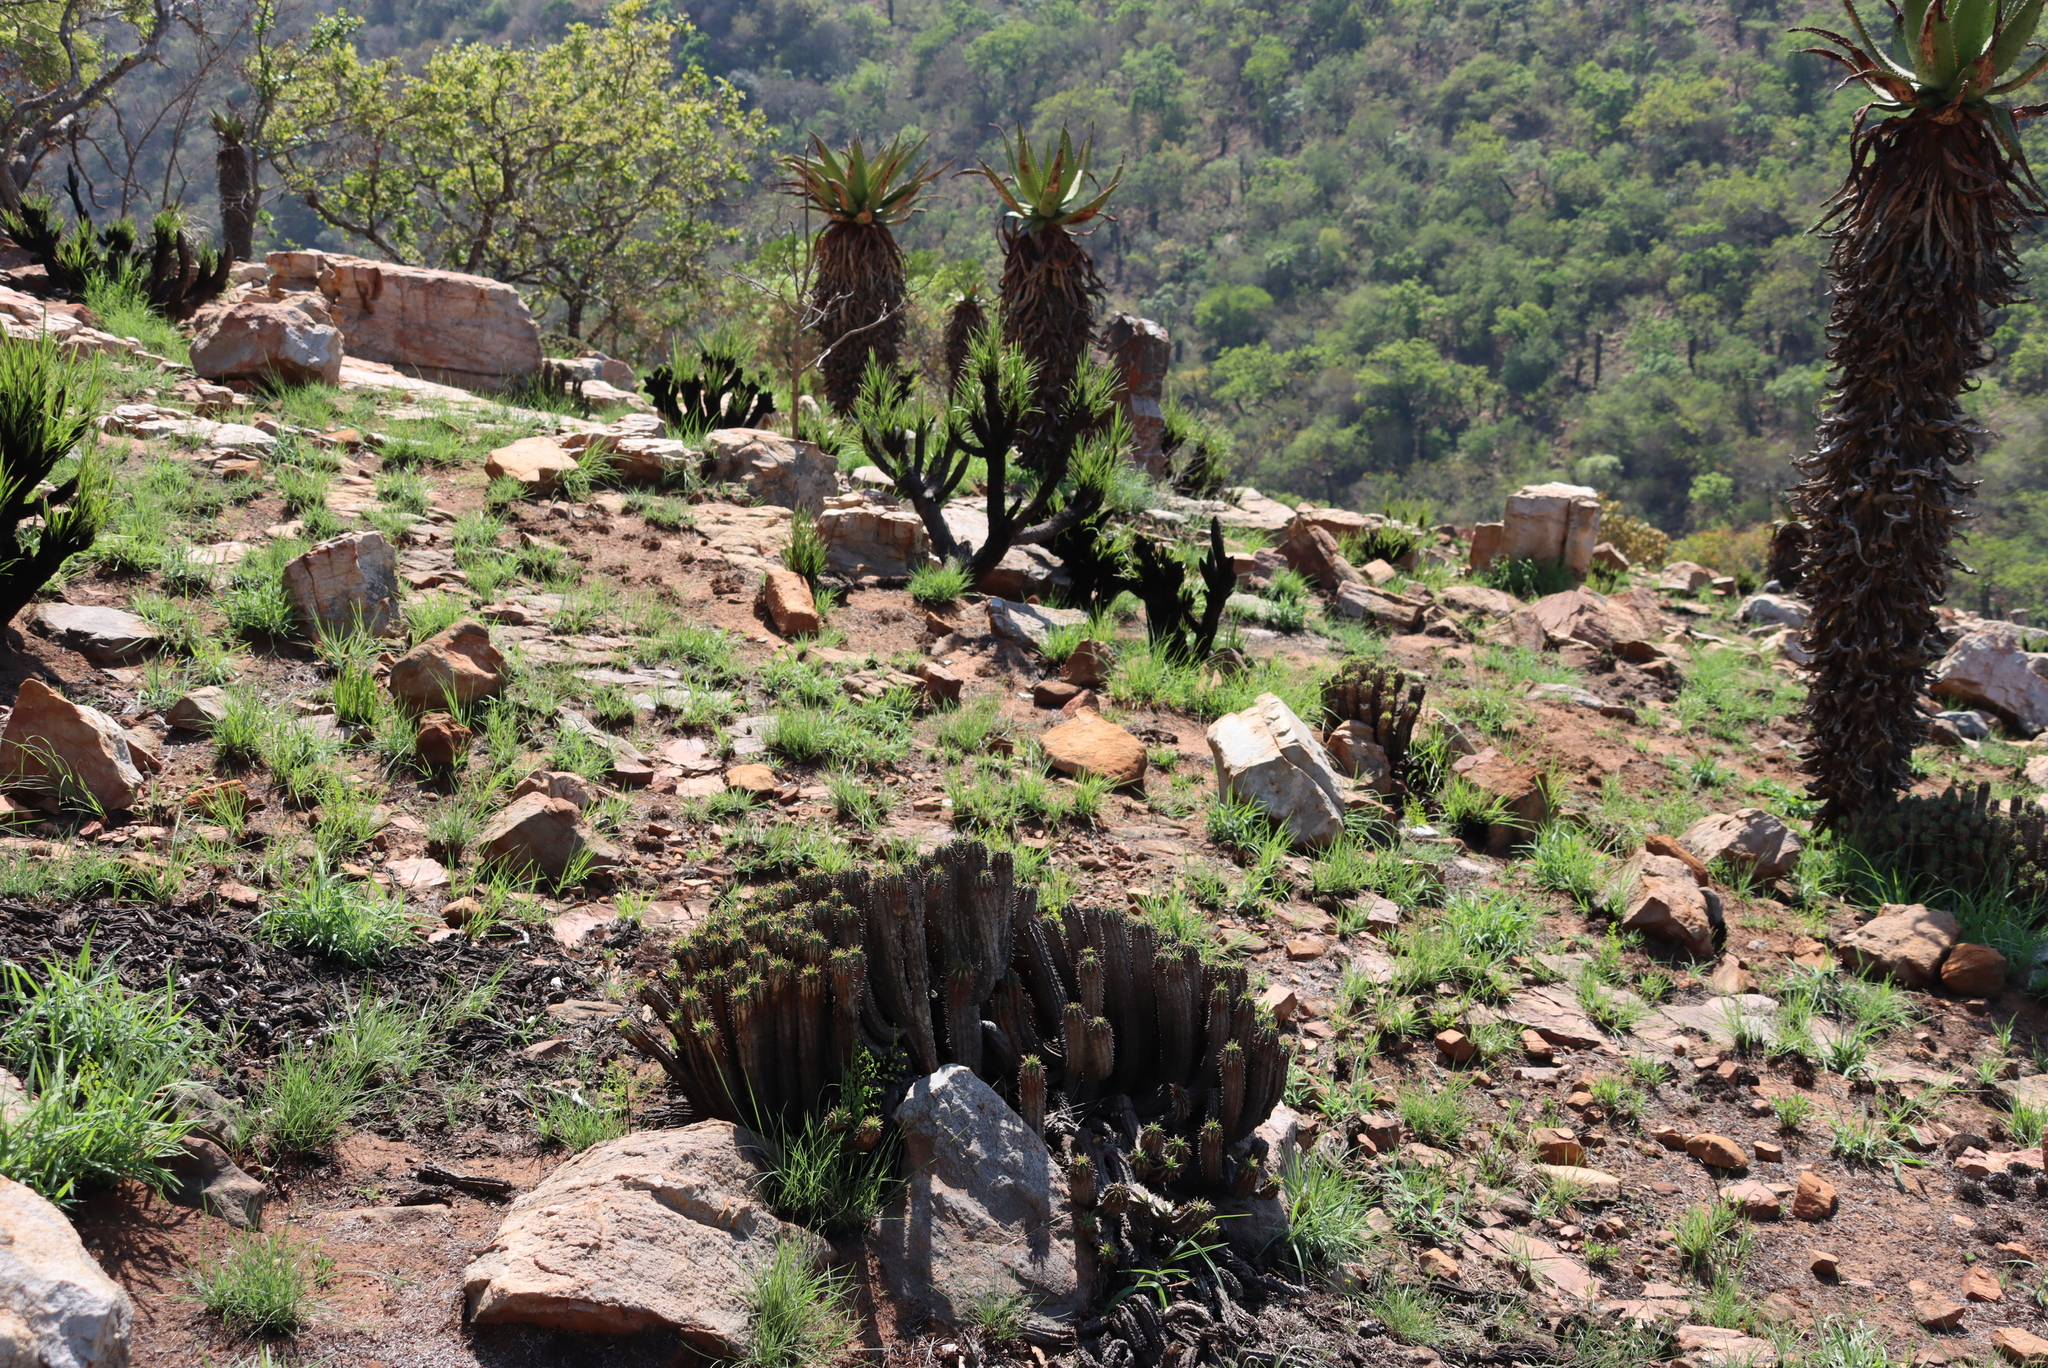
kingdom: Plantae
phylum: Tracheophyta
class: Liliopsida
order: Pandanales
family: Velloziaceae
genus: Xerophyta
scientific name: Xerophyta retinervis
